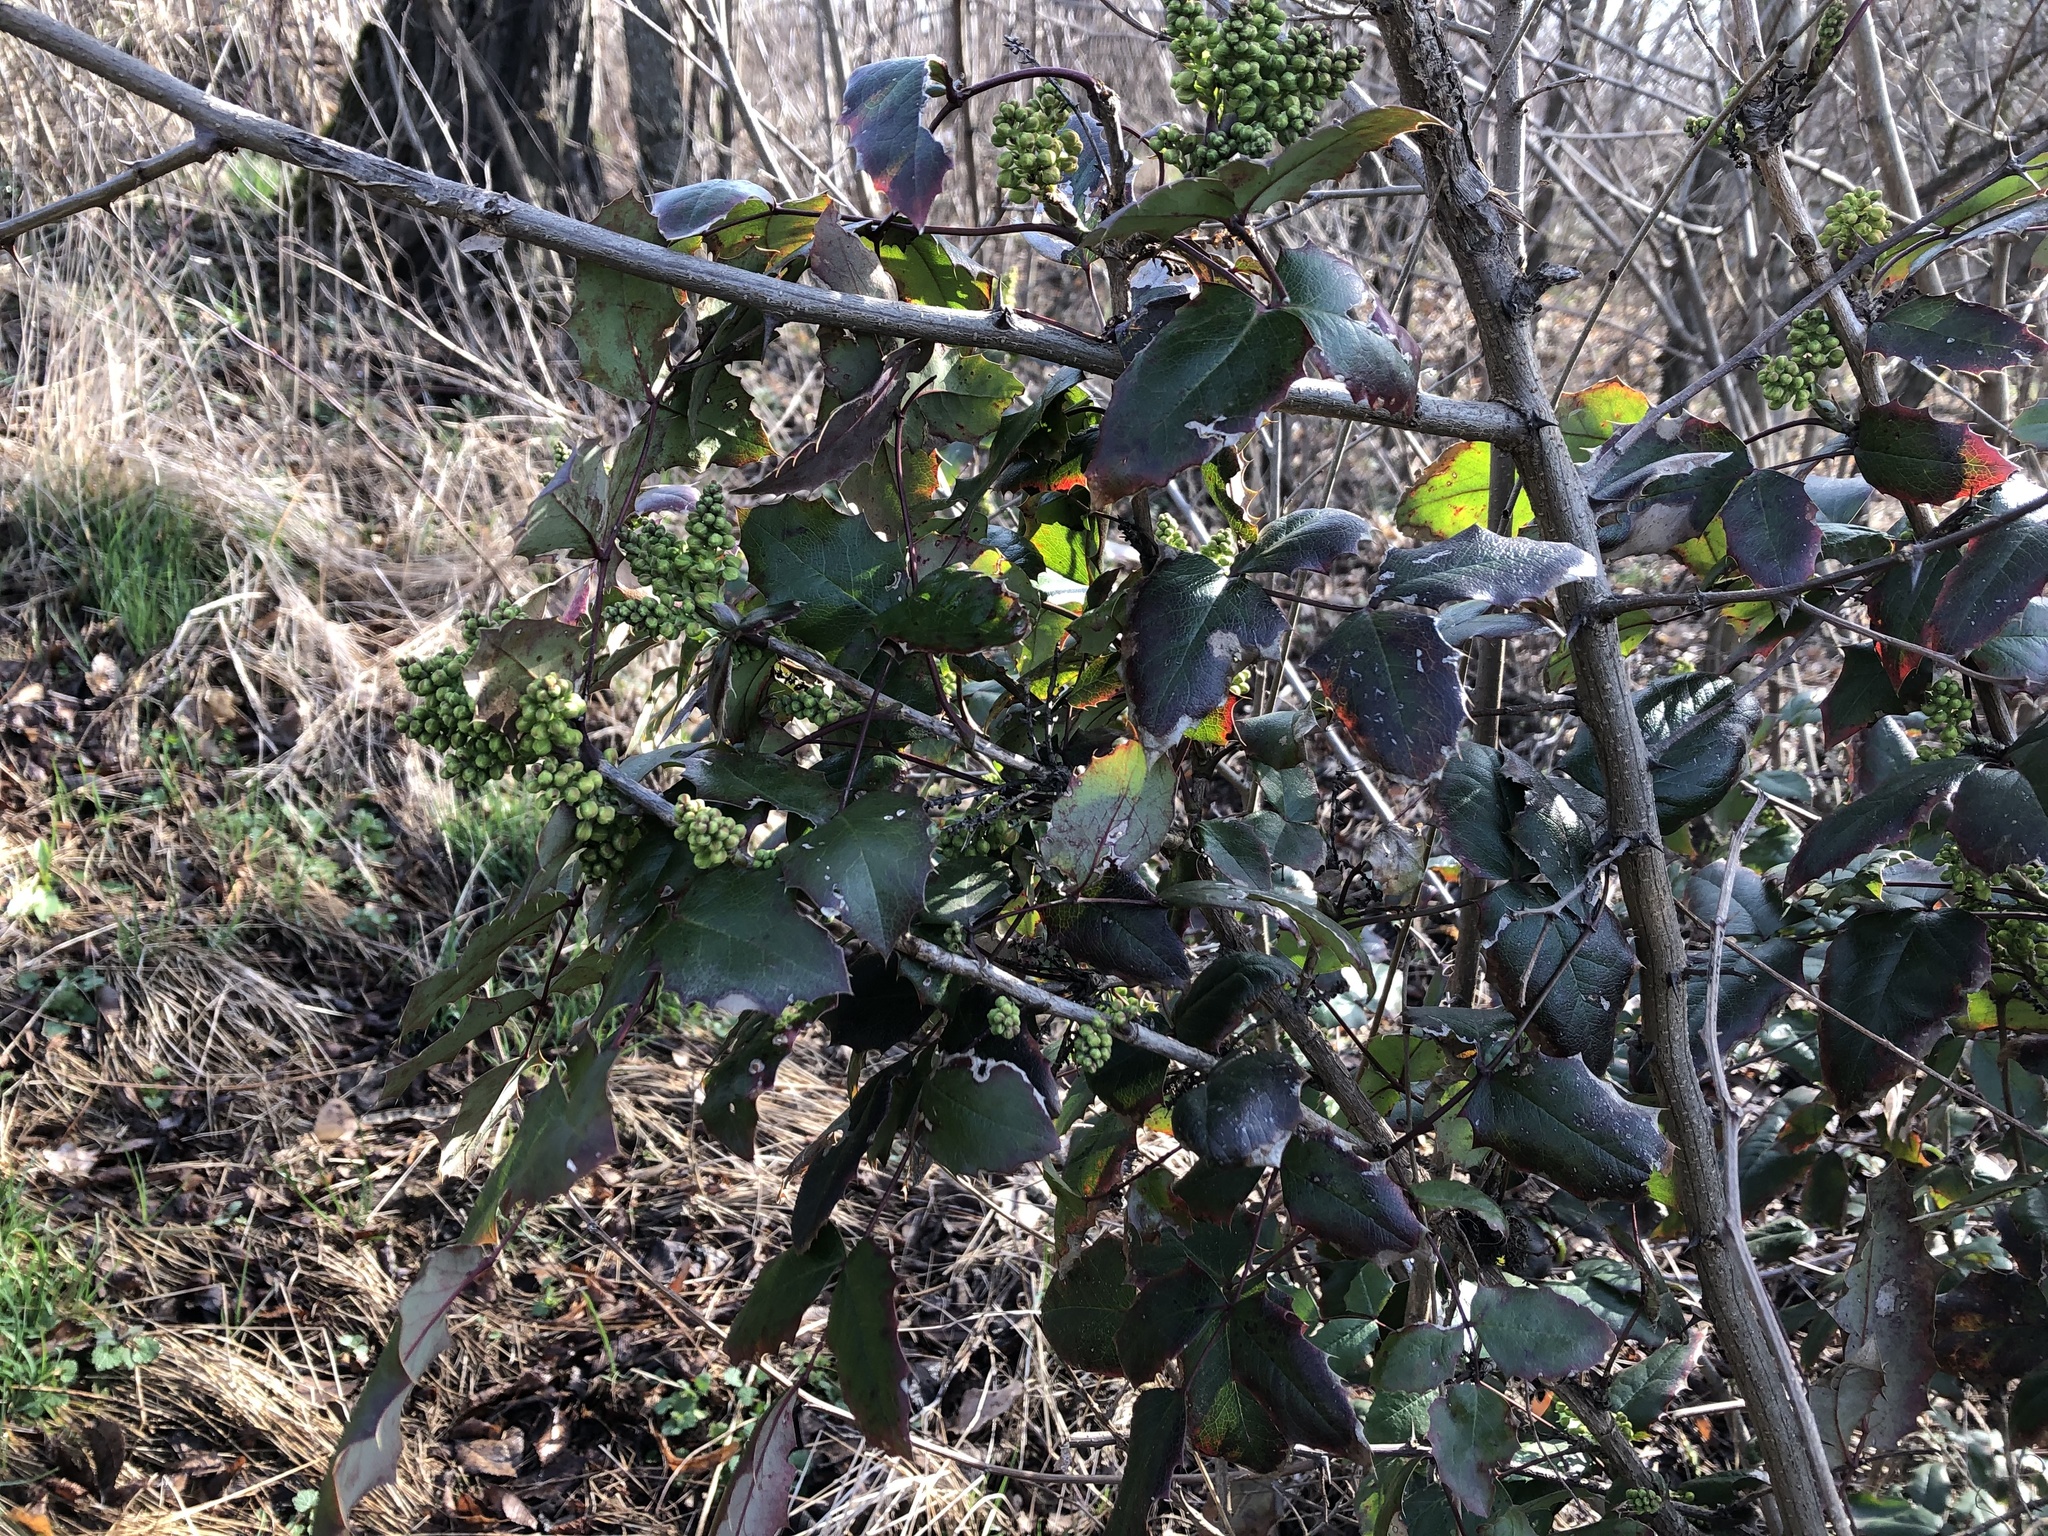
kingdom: Plantae
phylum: Tracheophyta
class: Magnoliopsida
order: Ranunculales
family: Berberidaceae
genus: Mahonia
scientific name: Mahonia aquifolium
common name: Oregon-grape
